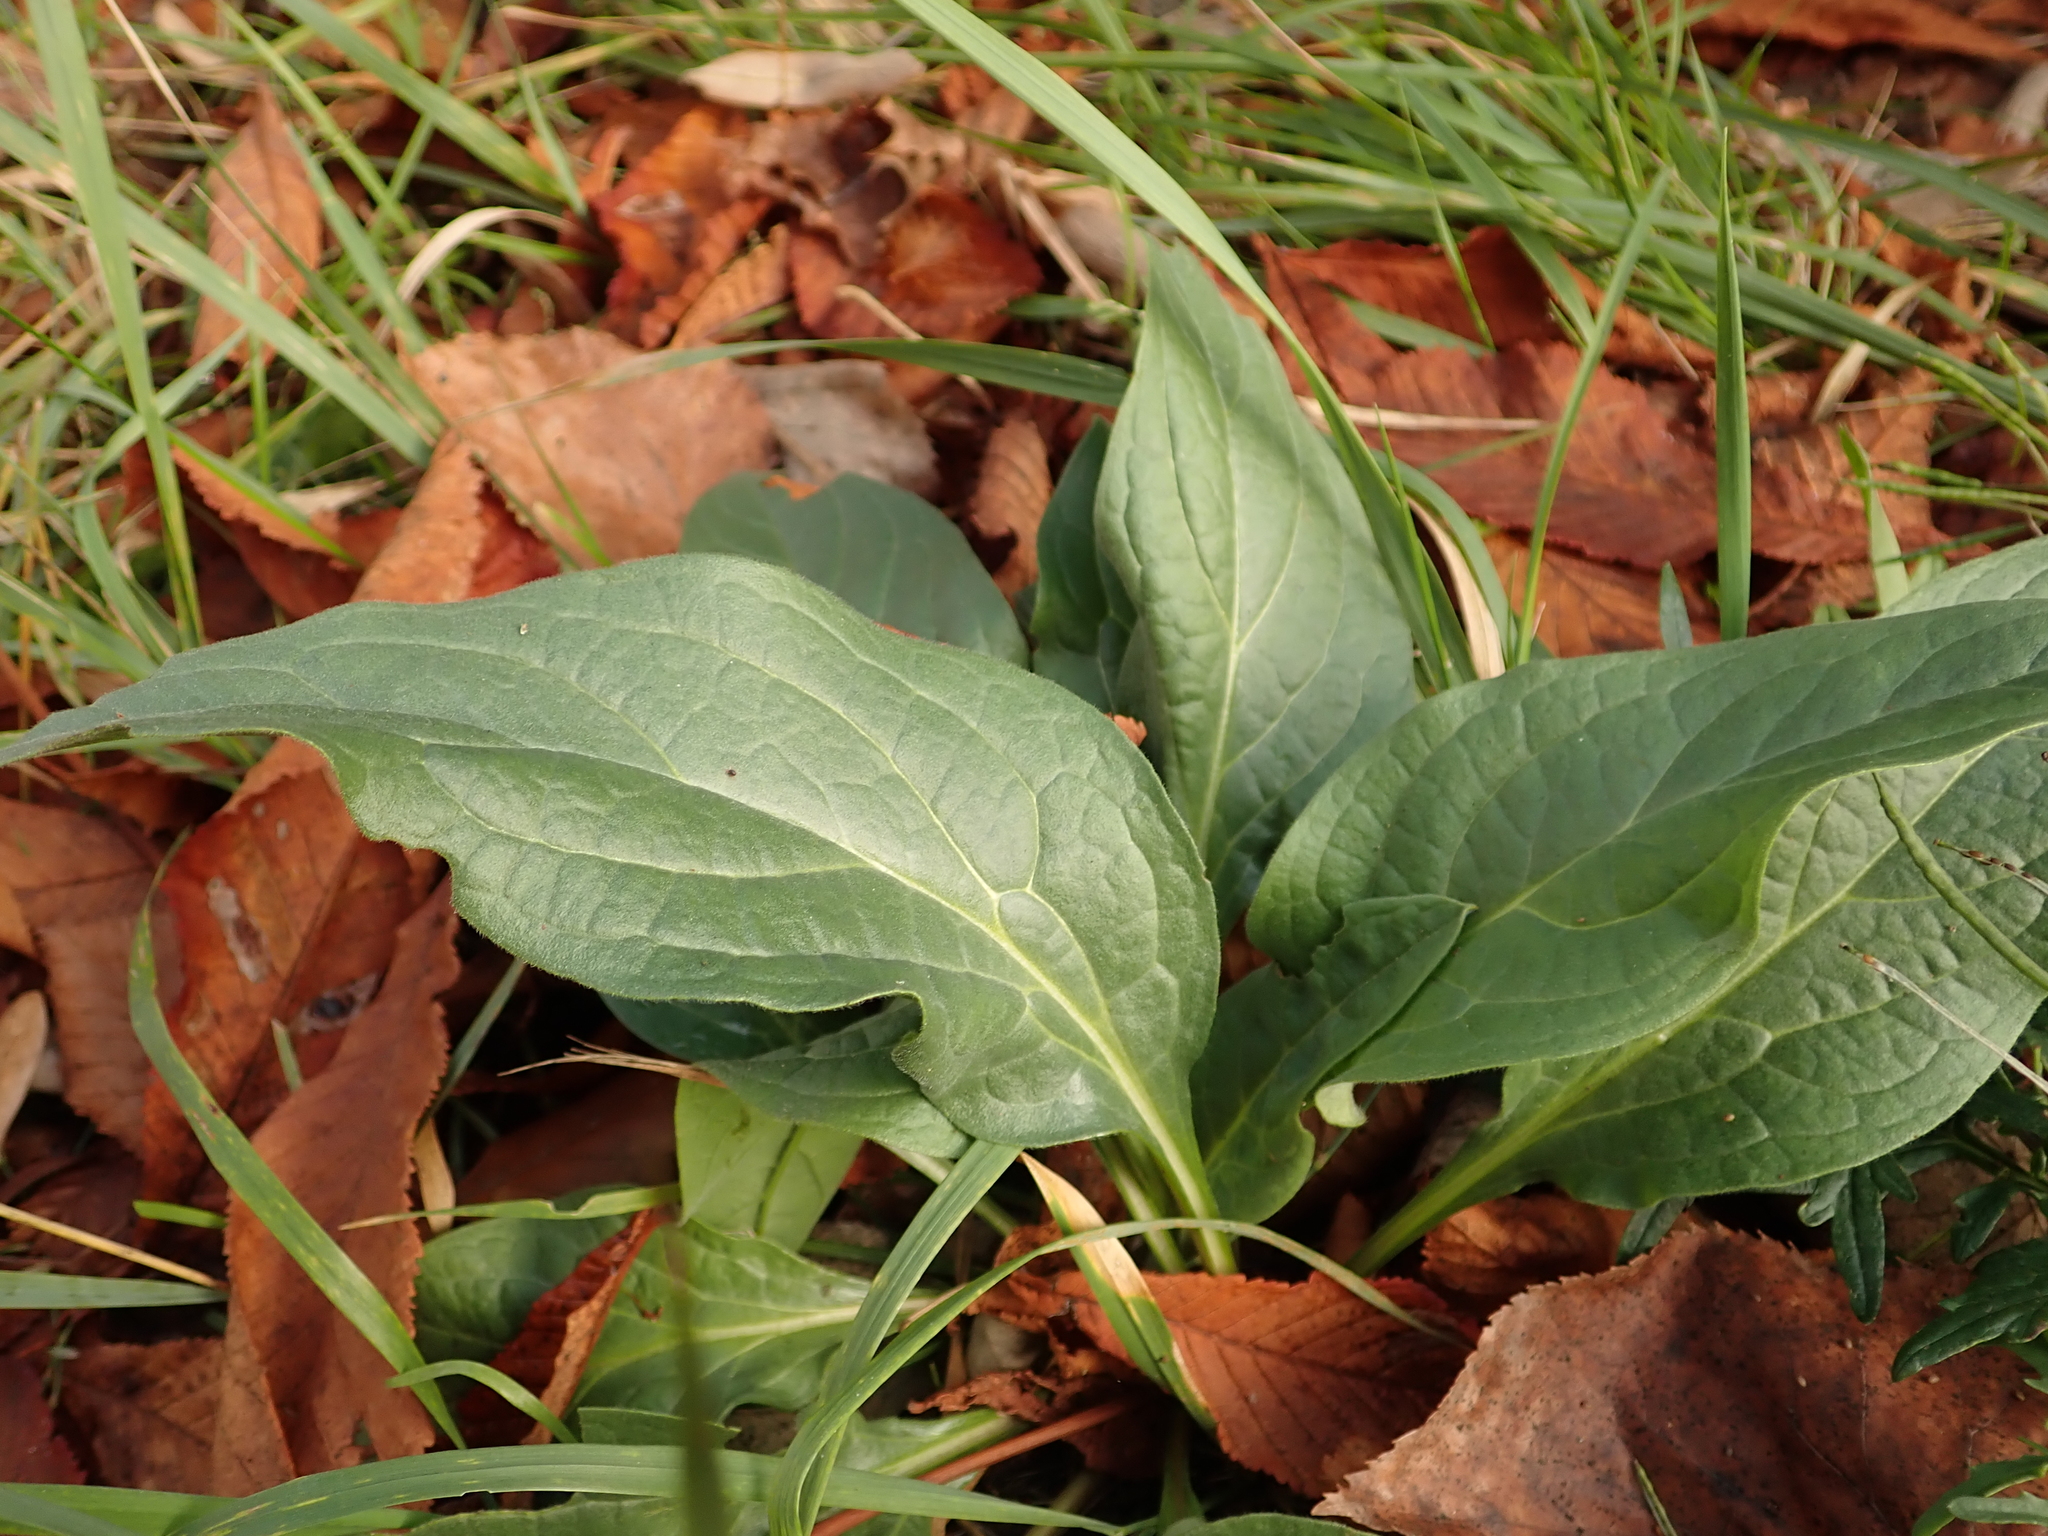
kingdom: Plantae
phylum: Tracheophyta
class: Magnoliopsida
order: Boraginales
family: Boraginaceae
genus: Cynoglossum
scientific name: Cynoglossum officinale
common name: Hound's-tongue
